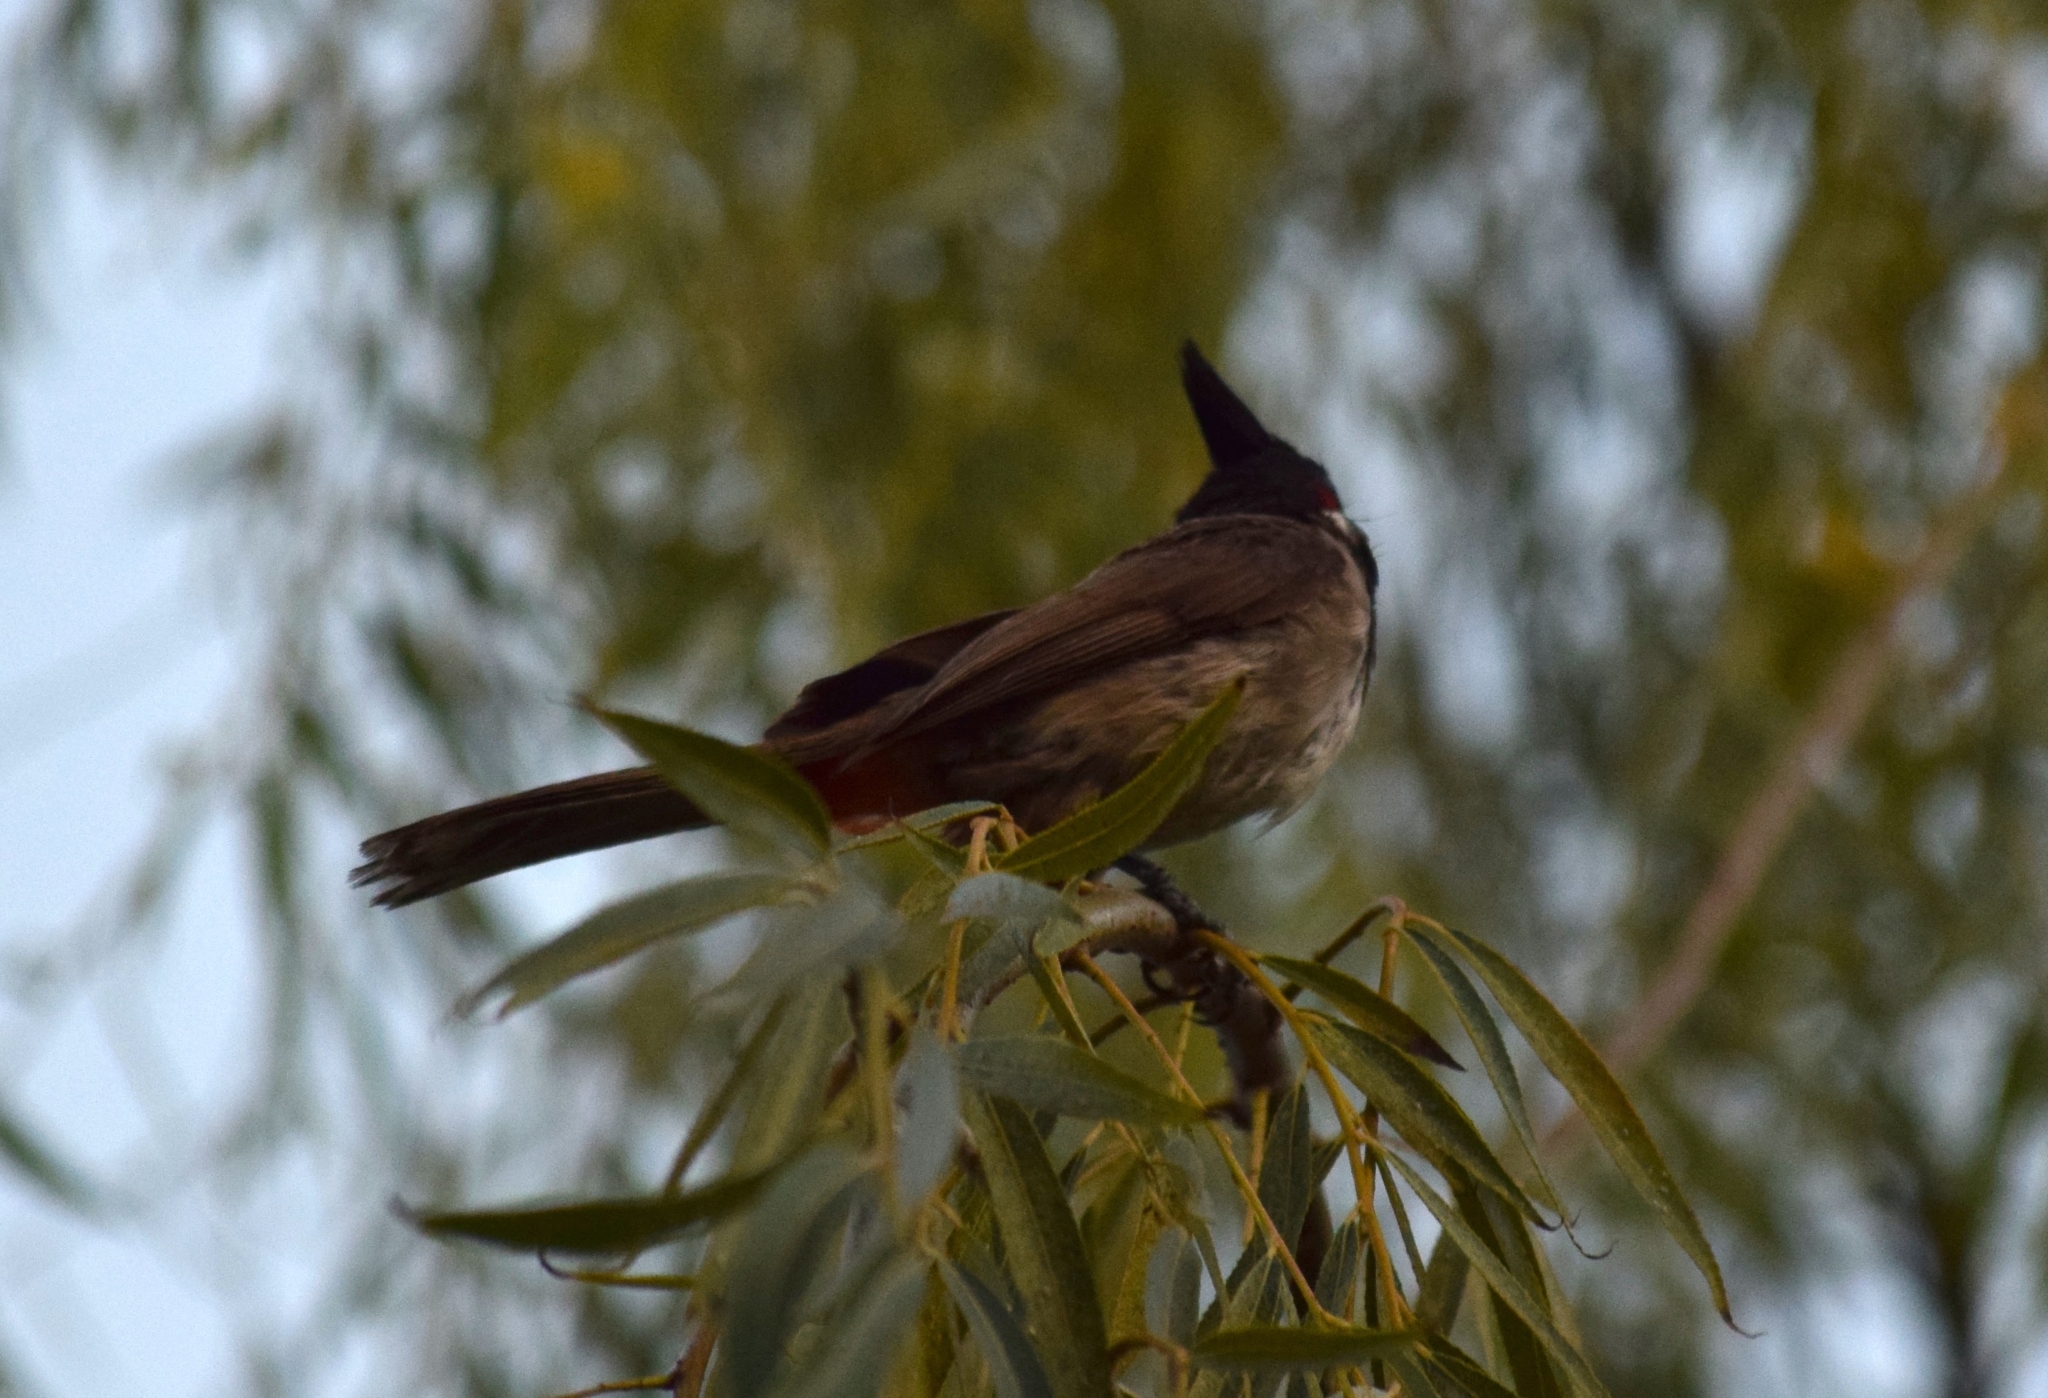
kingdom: Animalia
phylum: Chordata
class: Aves
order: Passeriformes
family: Pycnonotidae
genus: Pycnonotus
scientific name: Pycnonotus jocosus
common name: Red-whiskered bulbul
